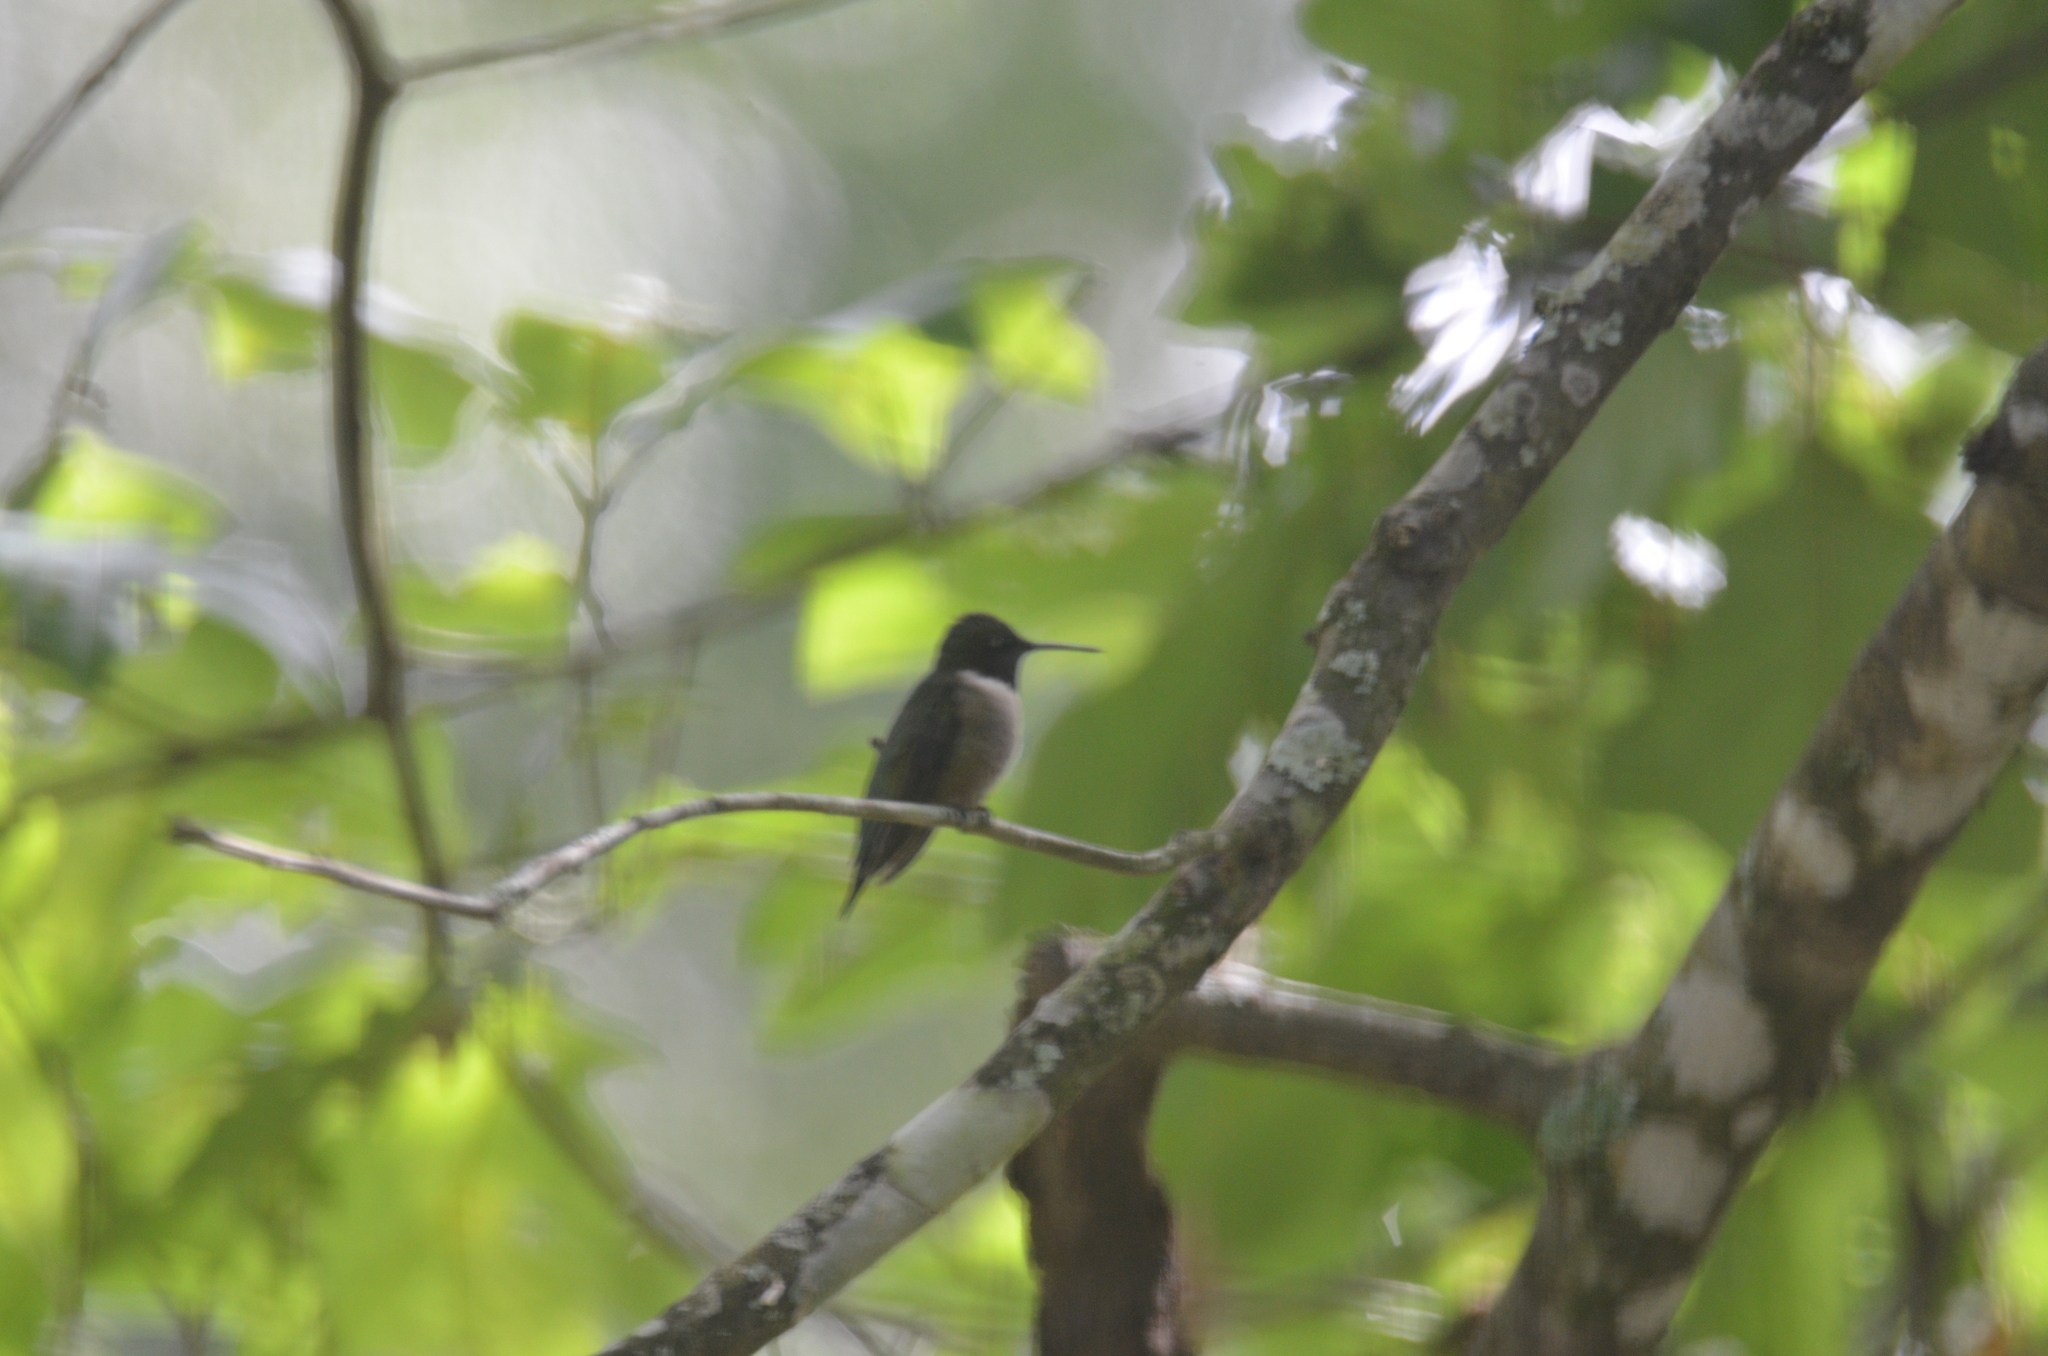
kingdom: Animalia
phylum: Chordata
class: Aves
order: Apodiformes
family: Trochilidae
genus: Archilochus
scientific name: Archilochus colubris
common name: Ruby-throated hummingbird
